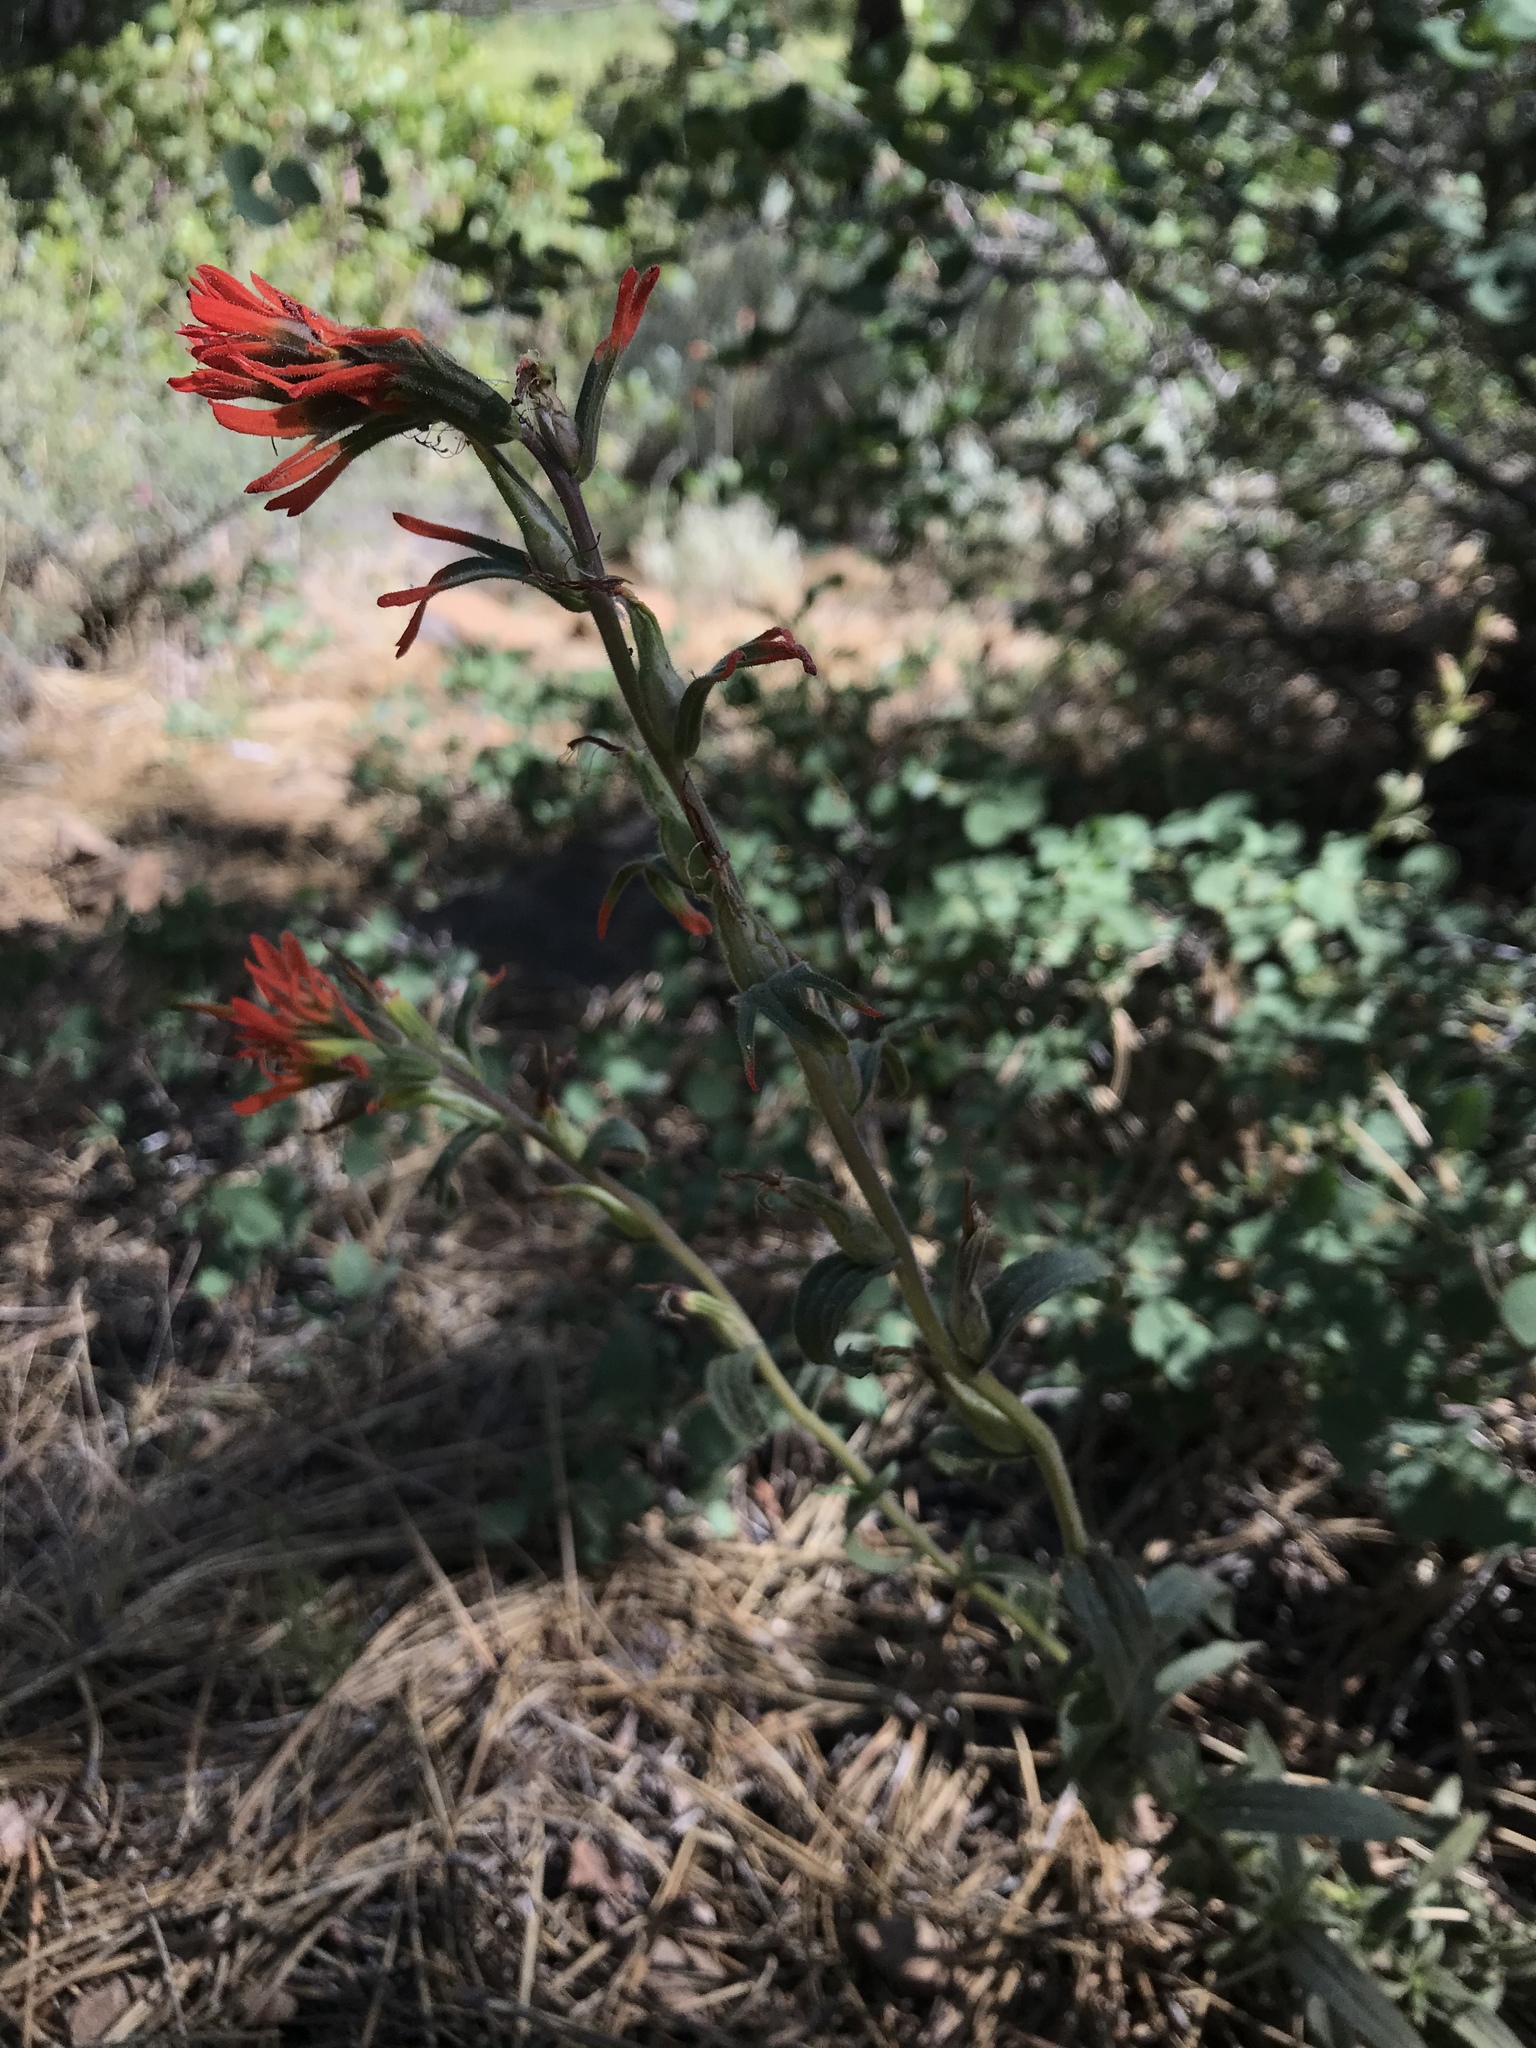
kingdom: Plantae
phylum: Tracheophyta
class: Magnoliopsida
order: Lamiales
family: Orobanchaceae
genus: Castilleja
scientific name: Castilleja applegatei
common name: Wavy-leaf paintbrush
